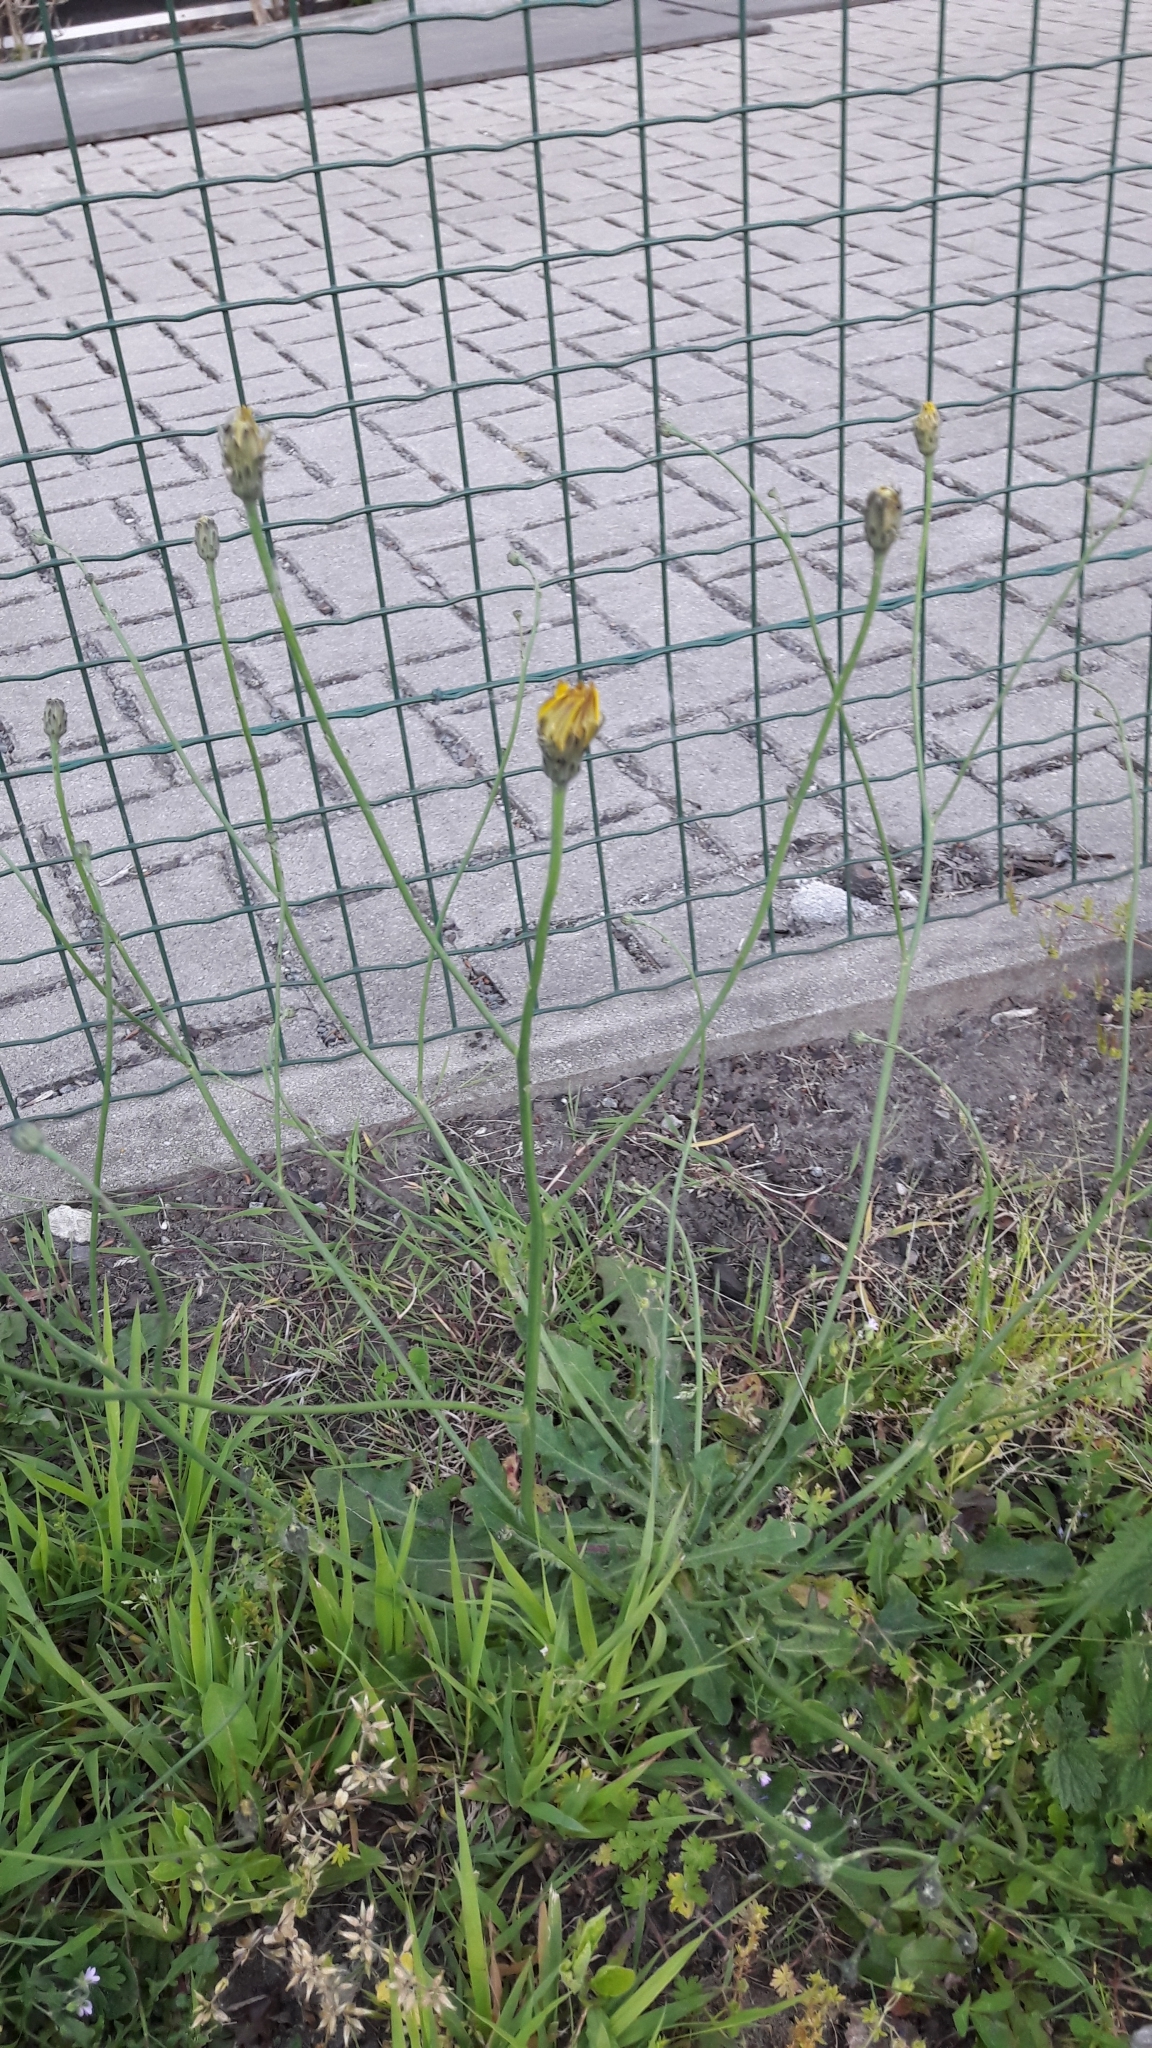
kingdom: Plantae
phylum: Tracheophyta
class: Magnoliopsida
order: Asterales
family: Asteraceae
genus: Hypochaeris
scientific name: Hypochaeris radicata
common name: Flatweed
